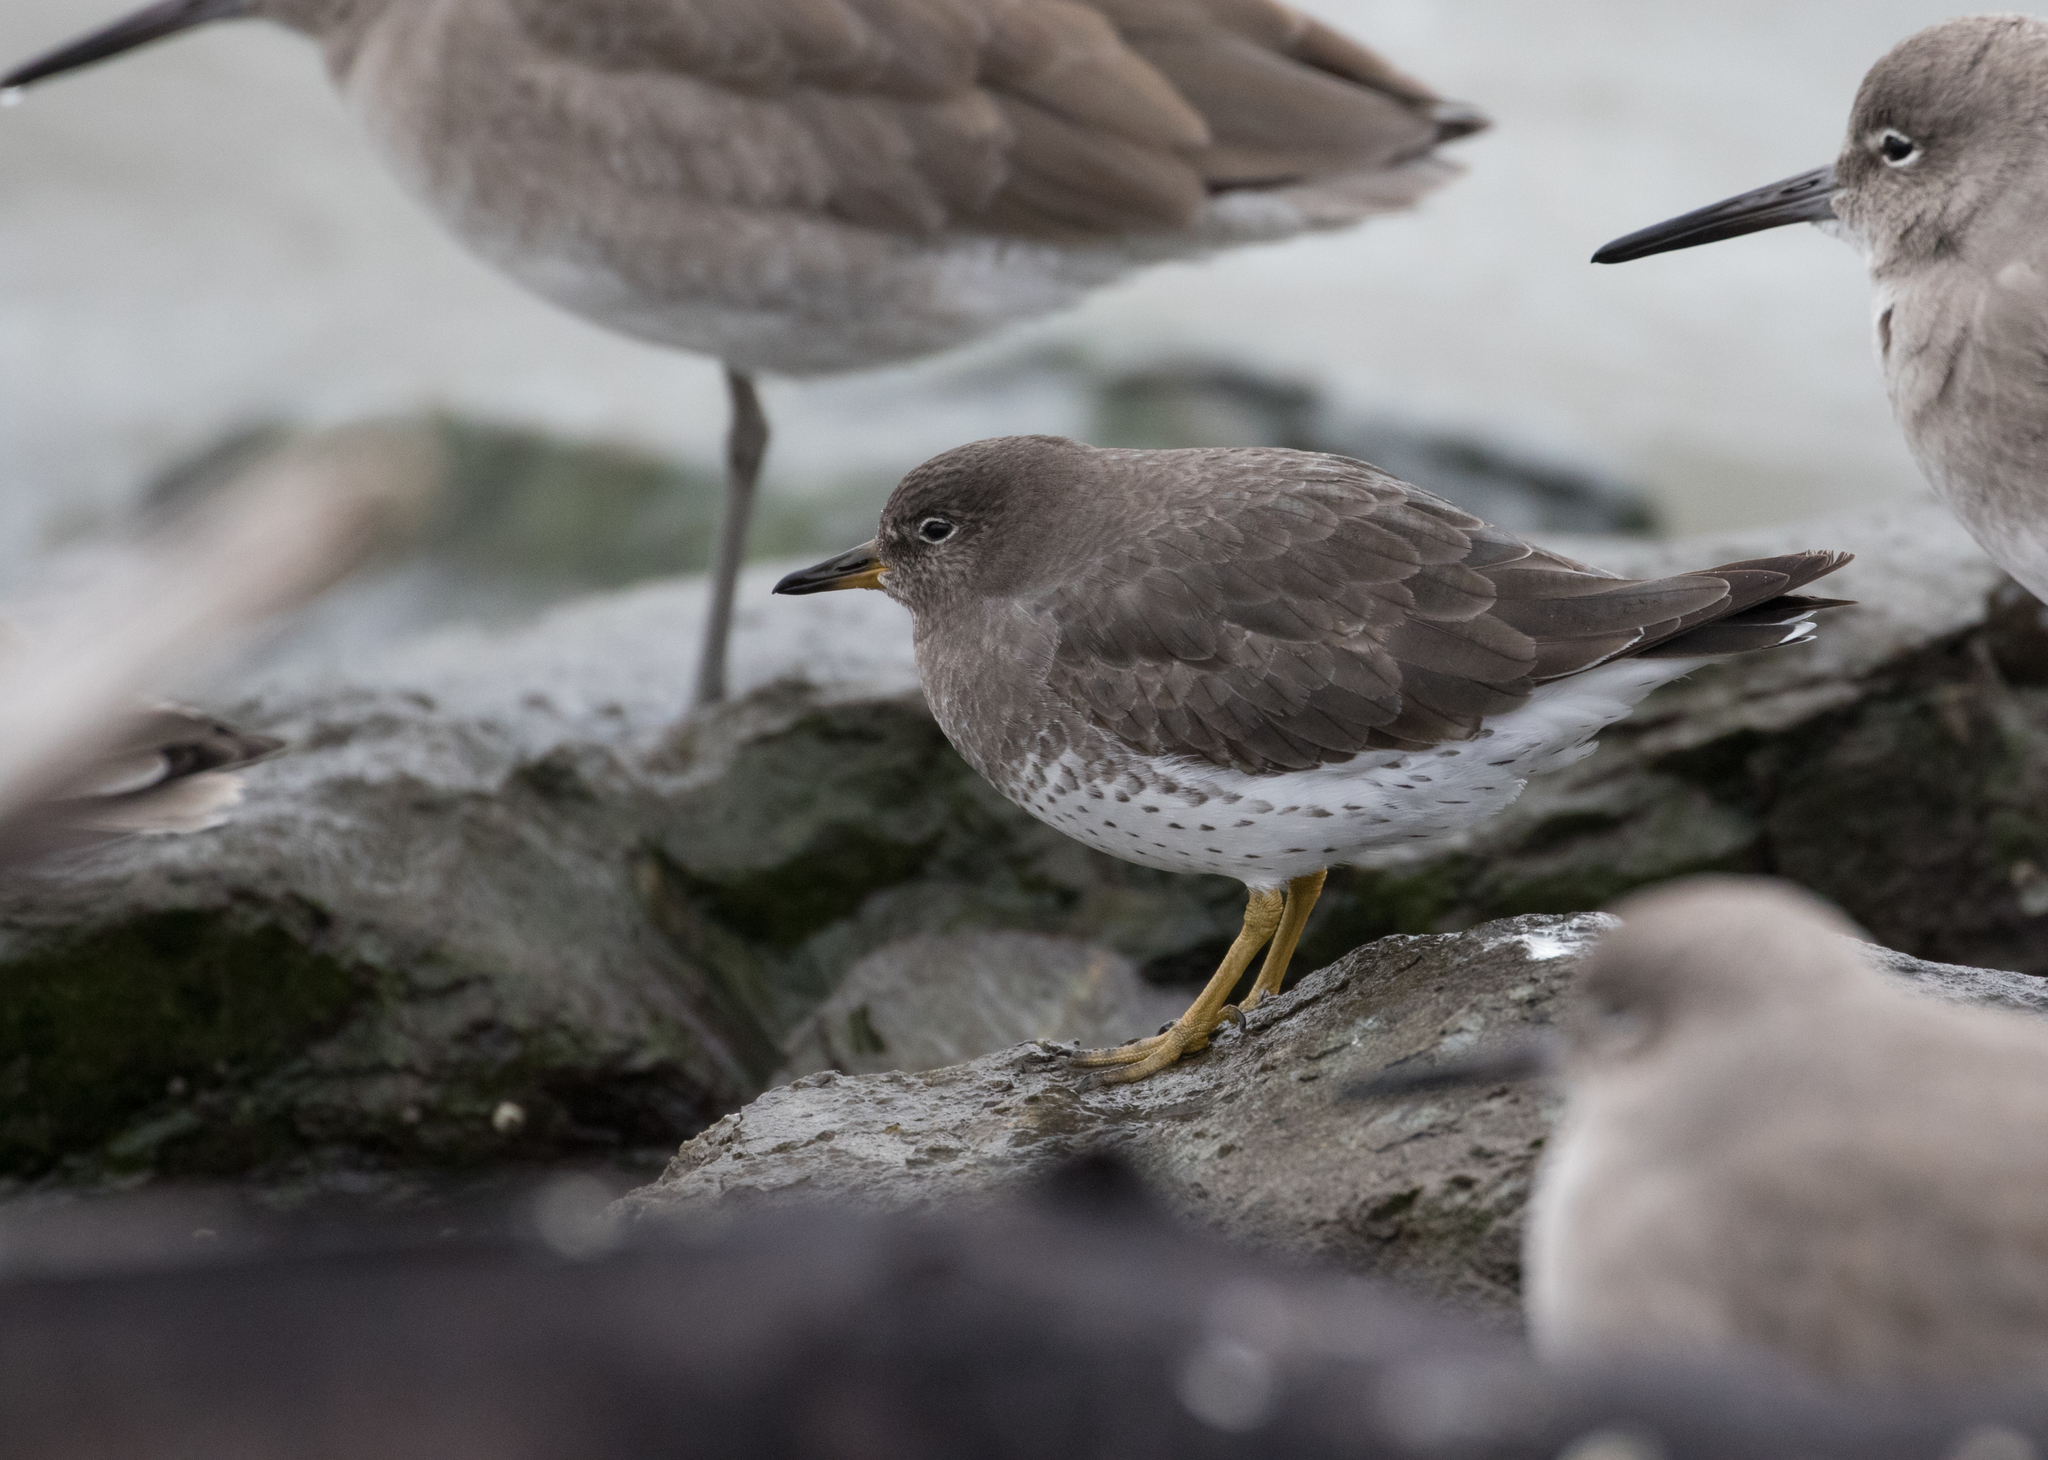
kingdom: Animalia
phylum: Chordata
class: Aves
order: Charadriiformes
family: Scolopacidae
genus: Calidris
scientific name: Calidris virgata
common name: Surfbird
